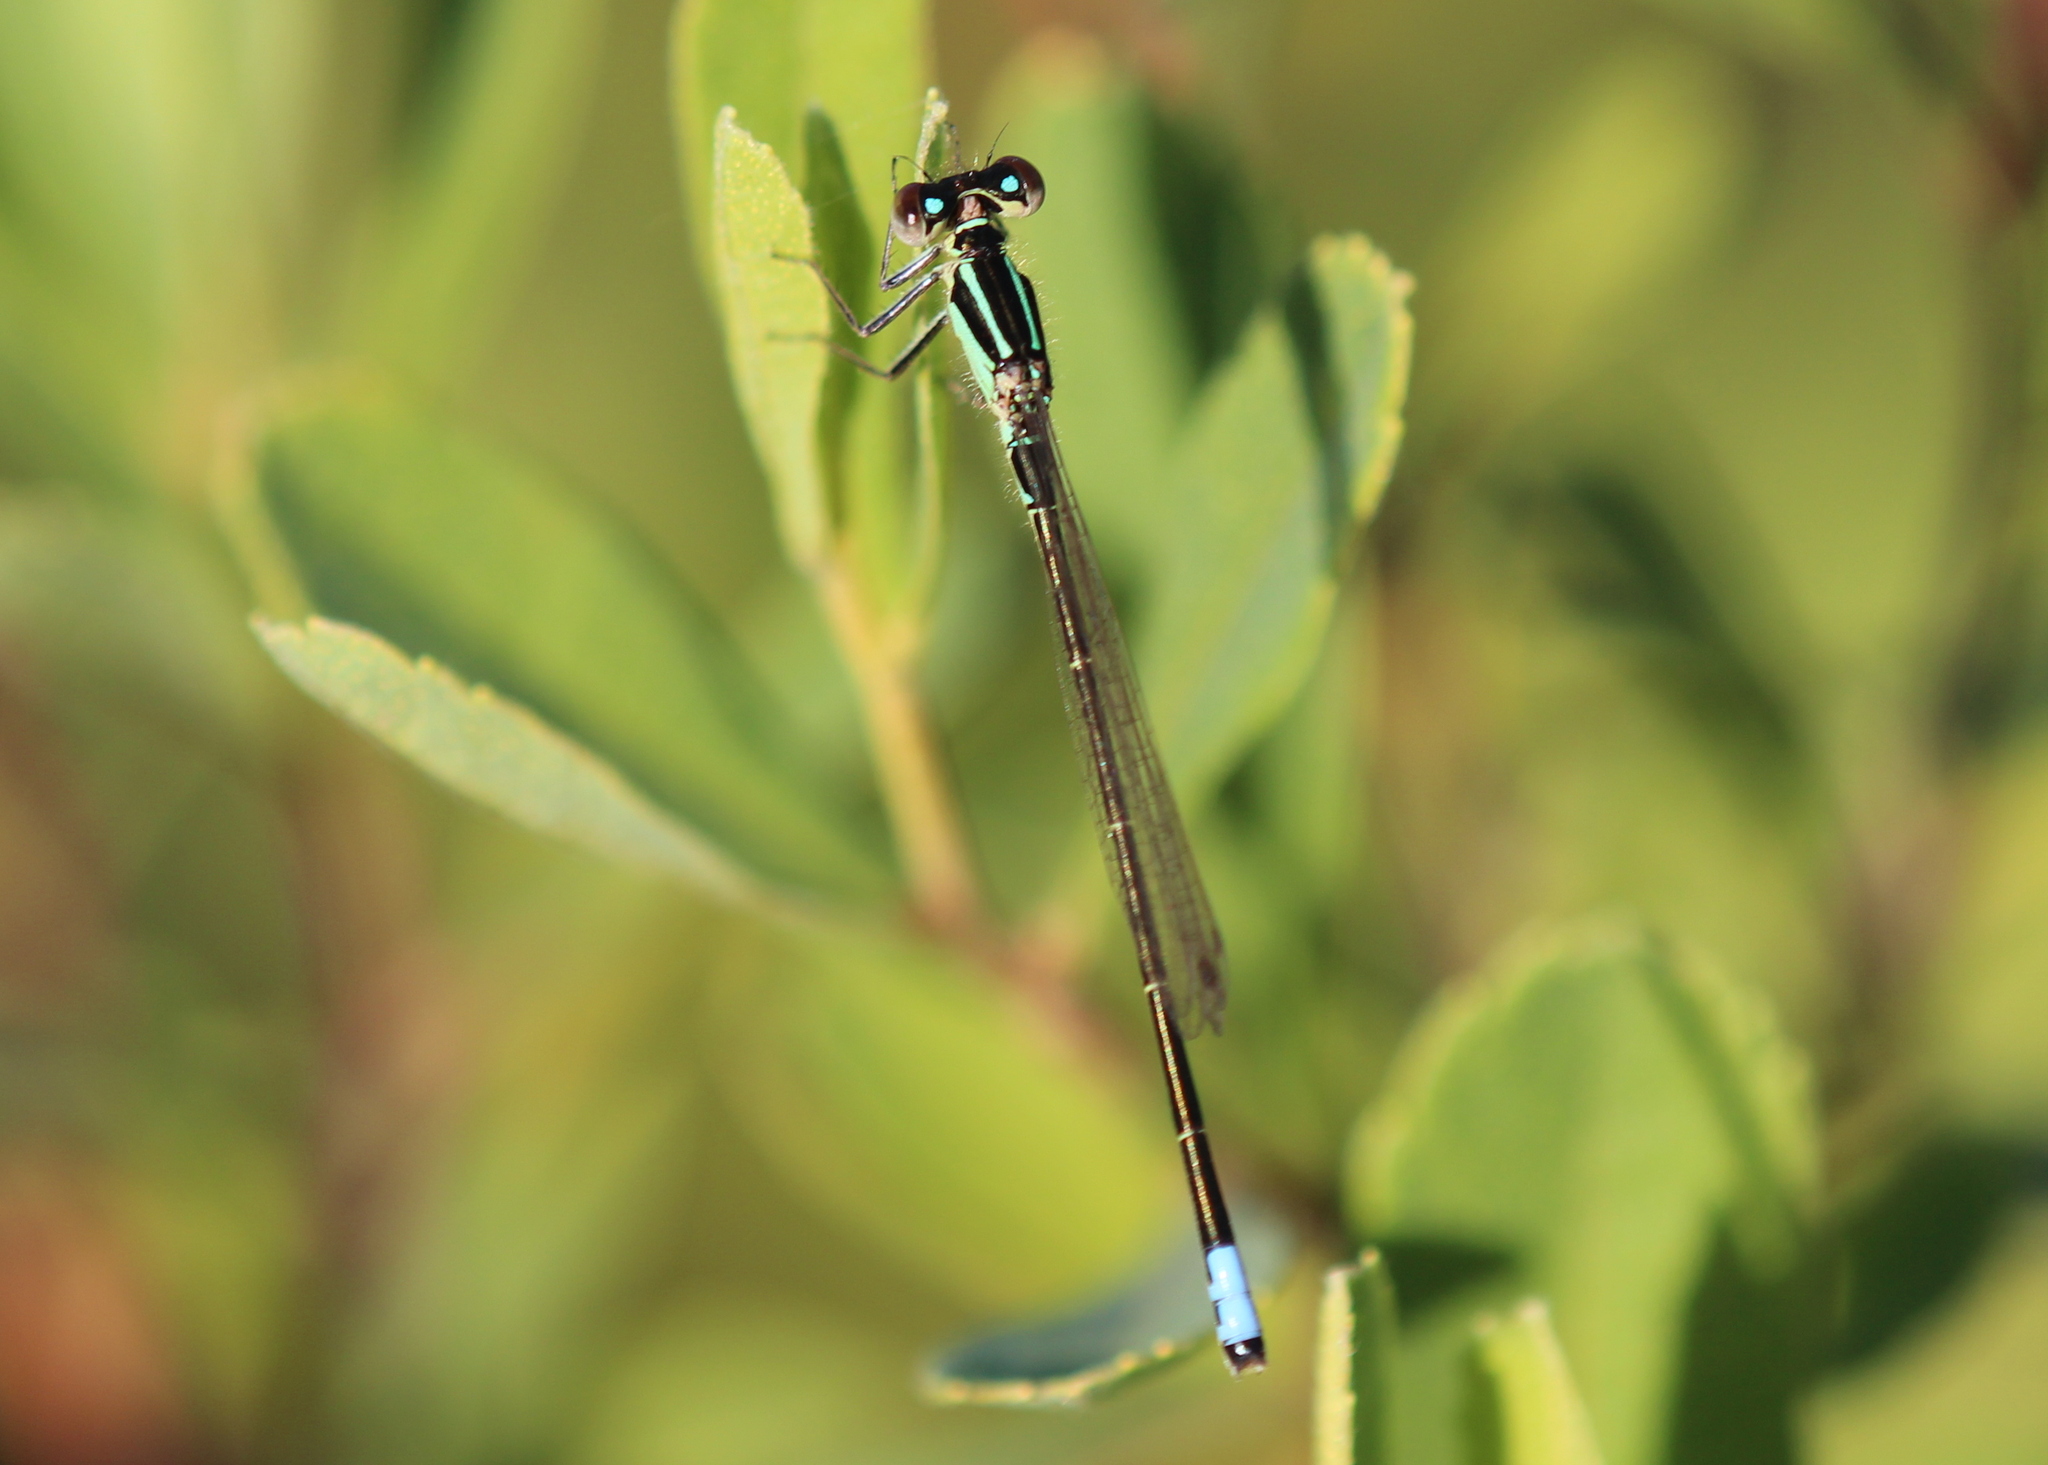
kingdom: Animalia
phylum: Arthropoda
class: Insecta
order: Odonata
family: Coenagrionidae
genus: Ischnura
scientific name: Ischnura verticalis
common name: Eastern forktail
